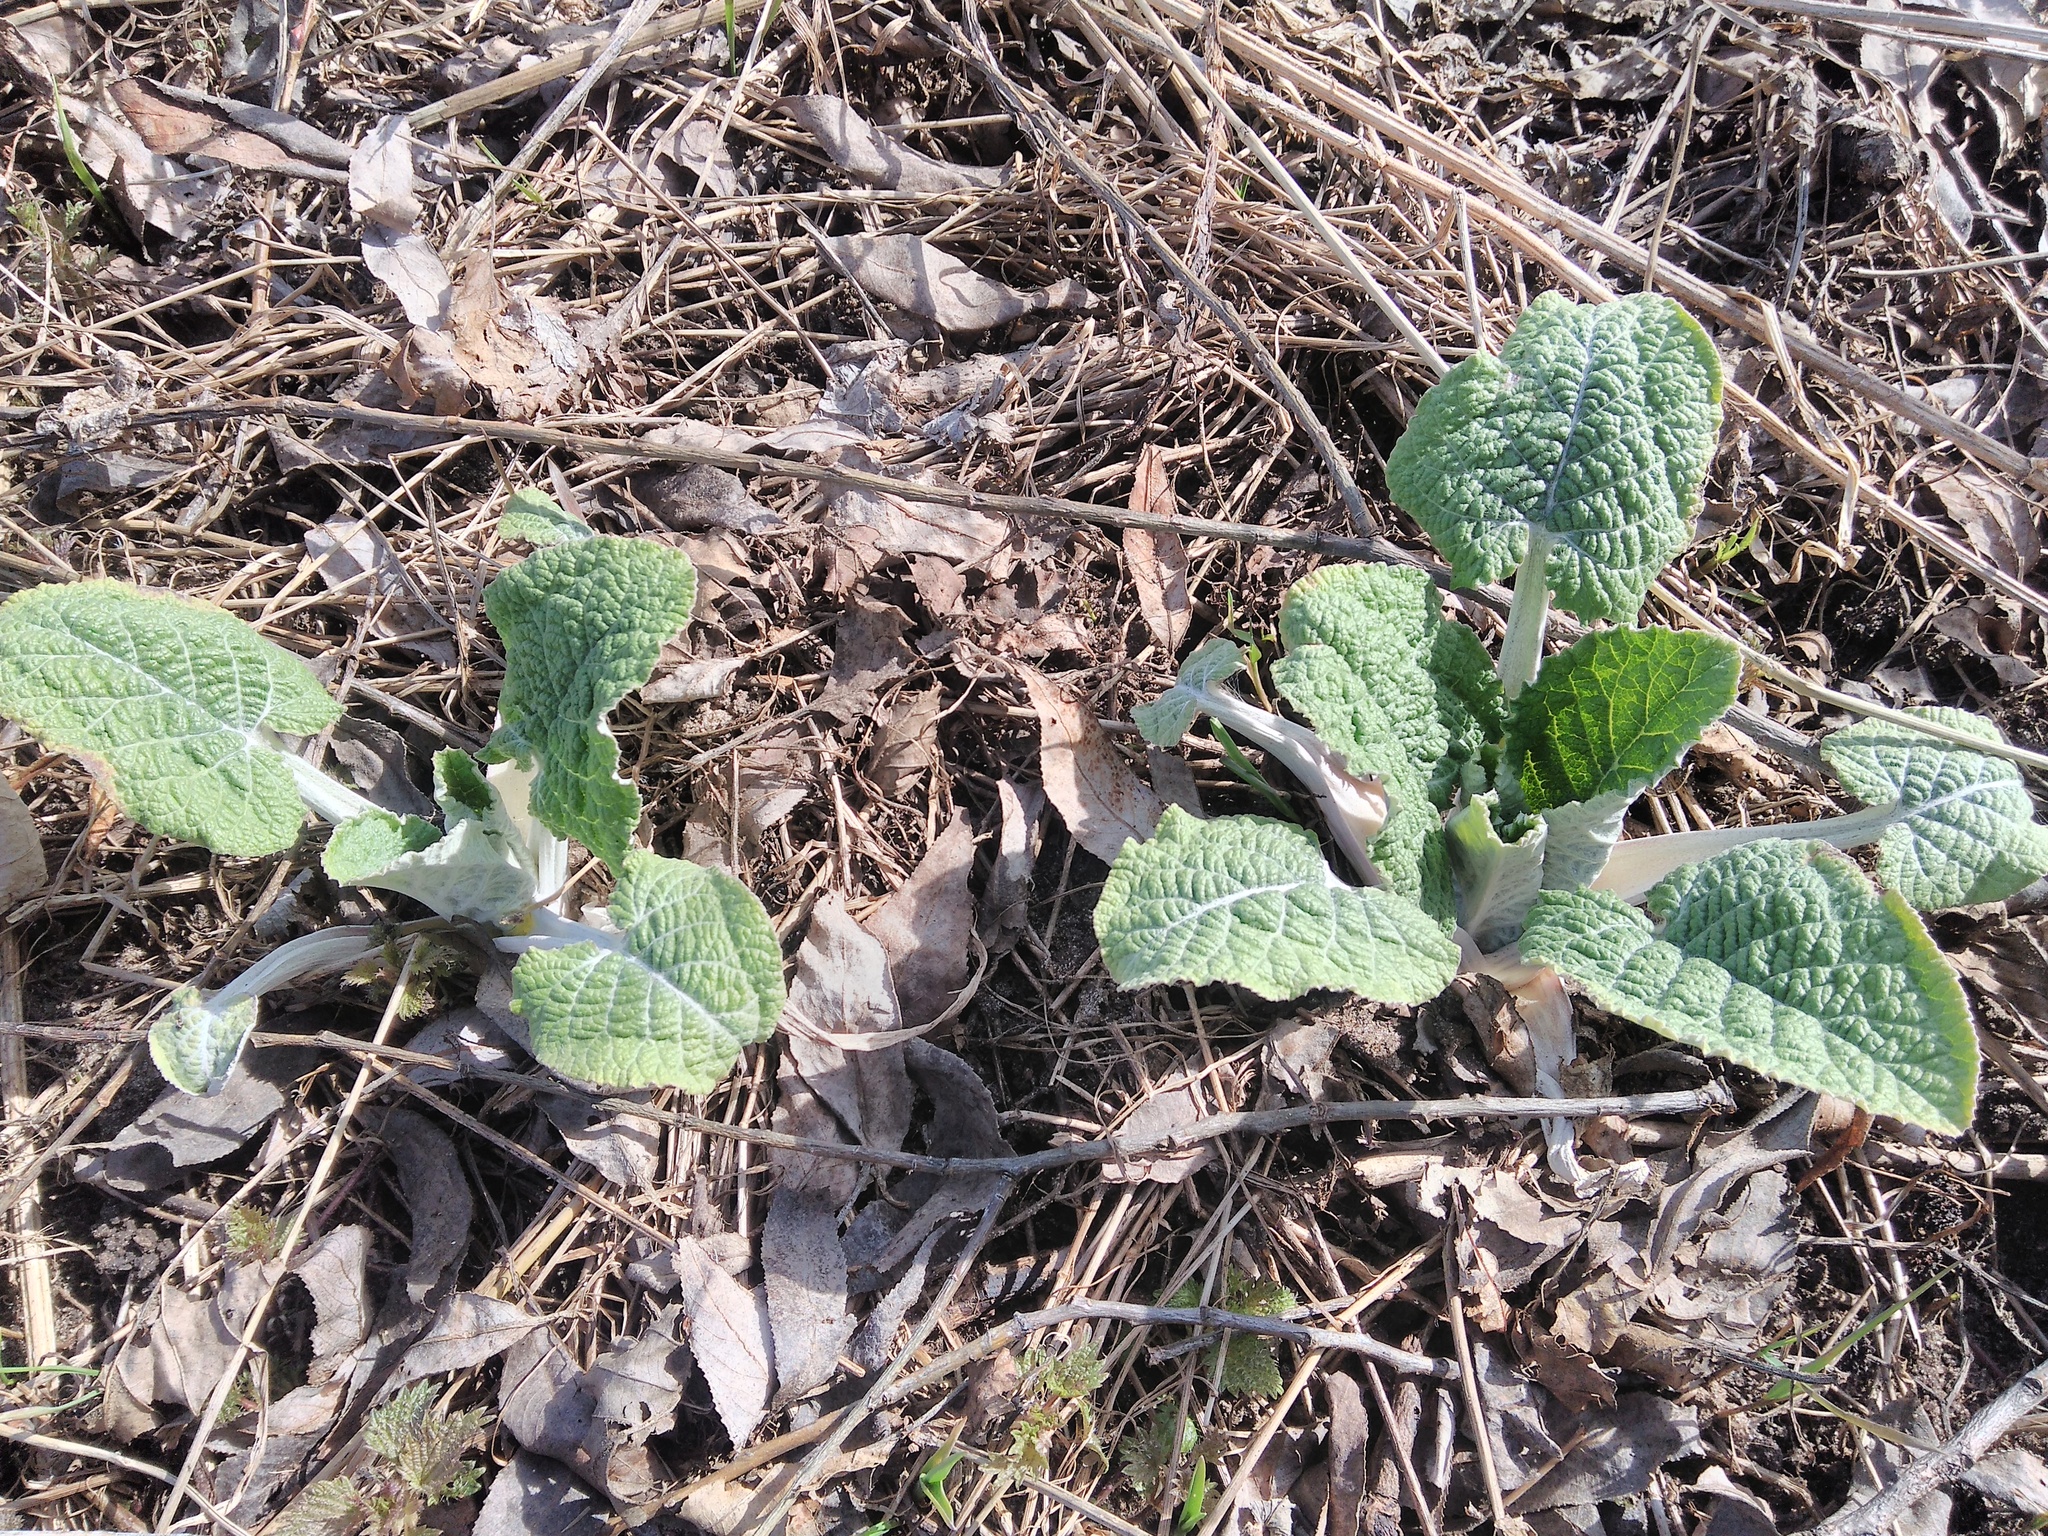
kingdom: Plantae
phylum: Tracheophyta
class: Magnoliopsida
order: Asterales
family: Asteraceae
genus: Arctium
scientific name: Arctium
